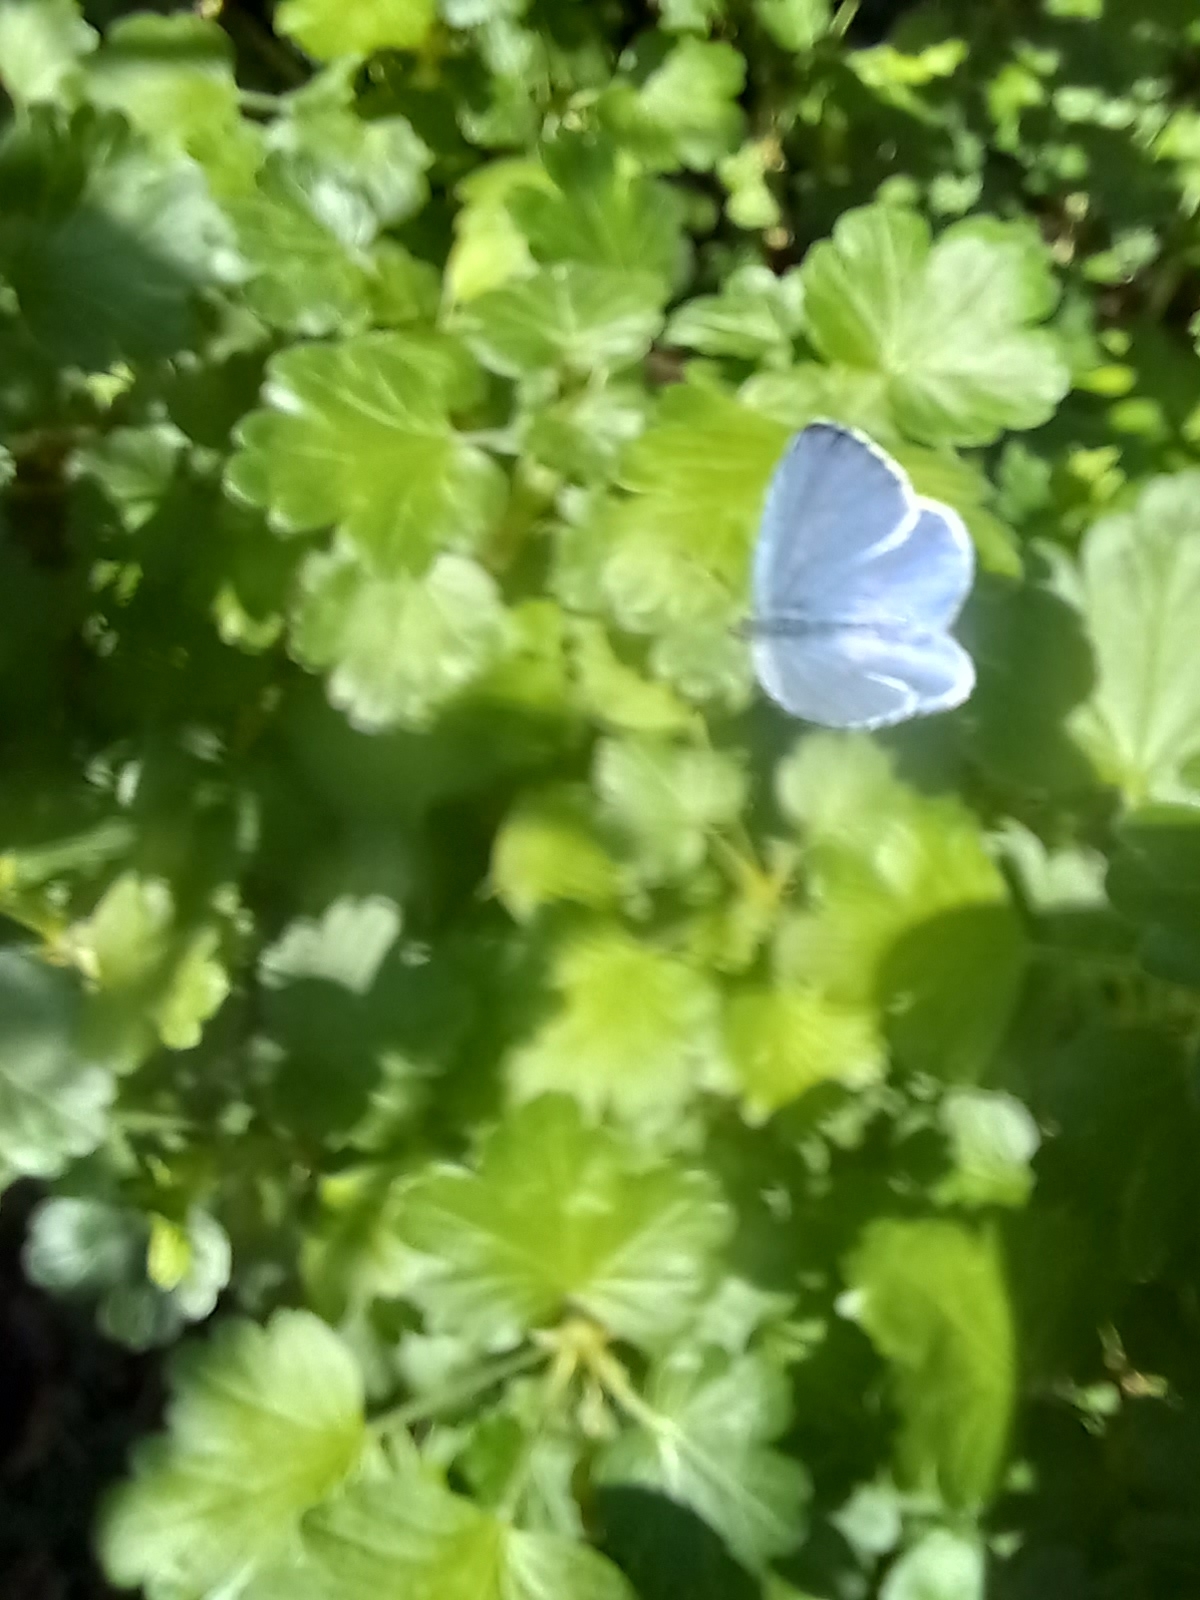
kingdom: Animalia
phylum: Arthropoda
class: Insecta
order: Lepidoptera
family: Lycaenidae
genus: Celastrina
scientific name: Celastrina argiolus
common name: Holly blue
